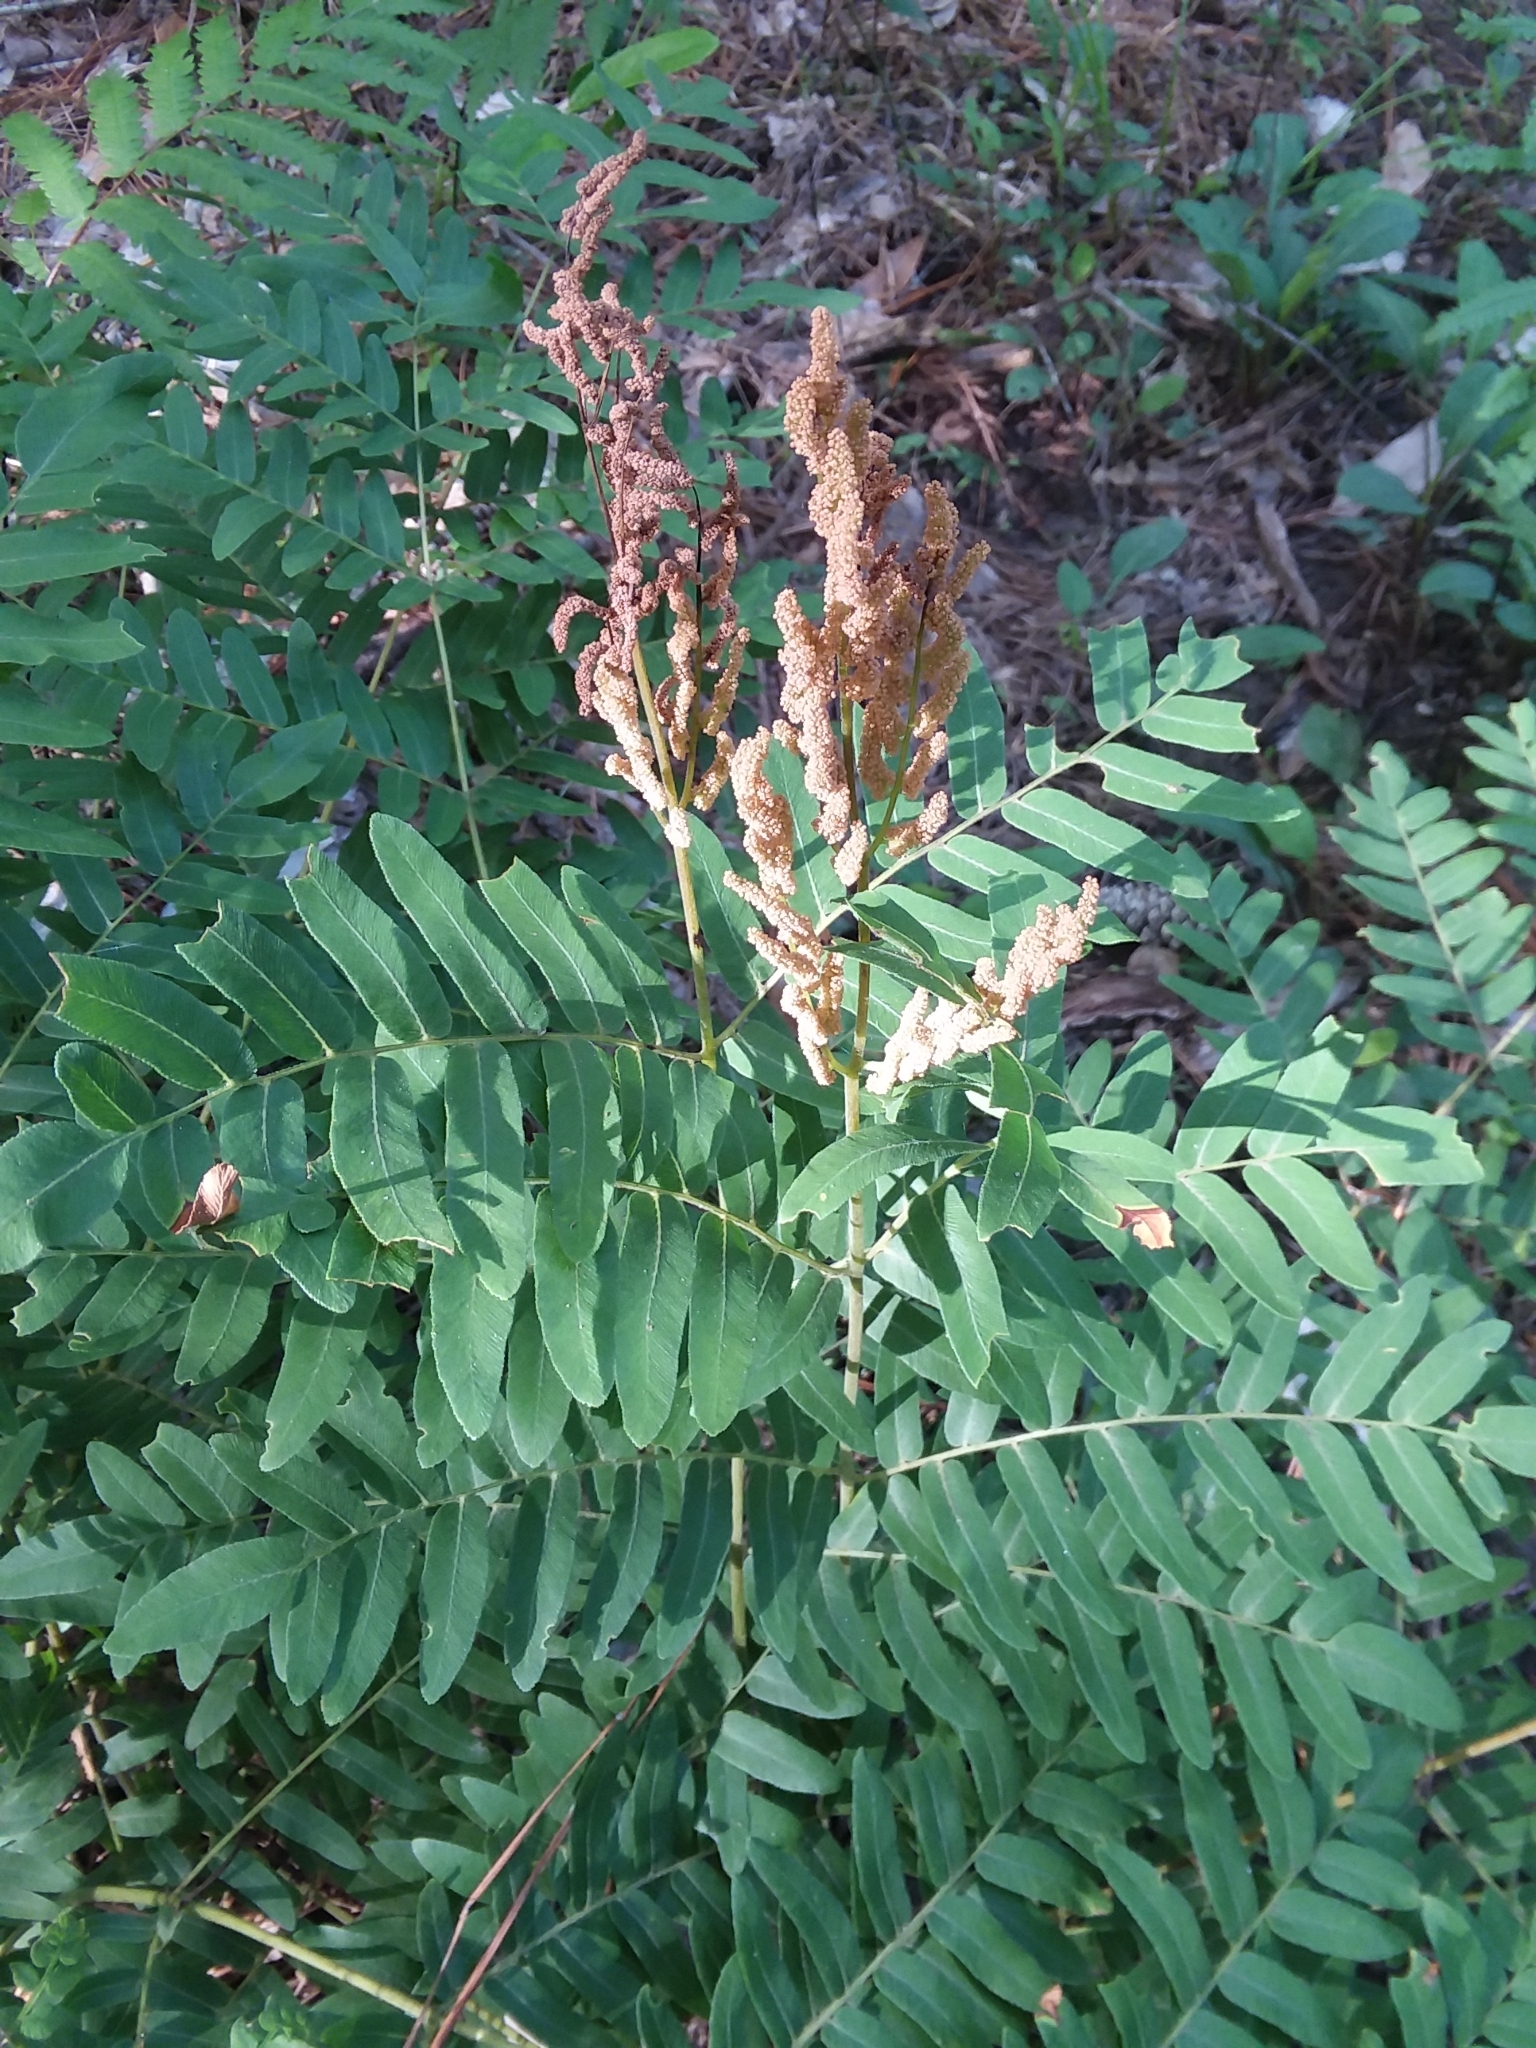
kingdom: Plantae
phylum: Tracheophyta
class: Polypodiopsida
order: Osmundales
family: Osmundaceae
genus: Osmunda
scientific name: Osmunda spectabilis
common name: American royal fern
